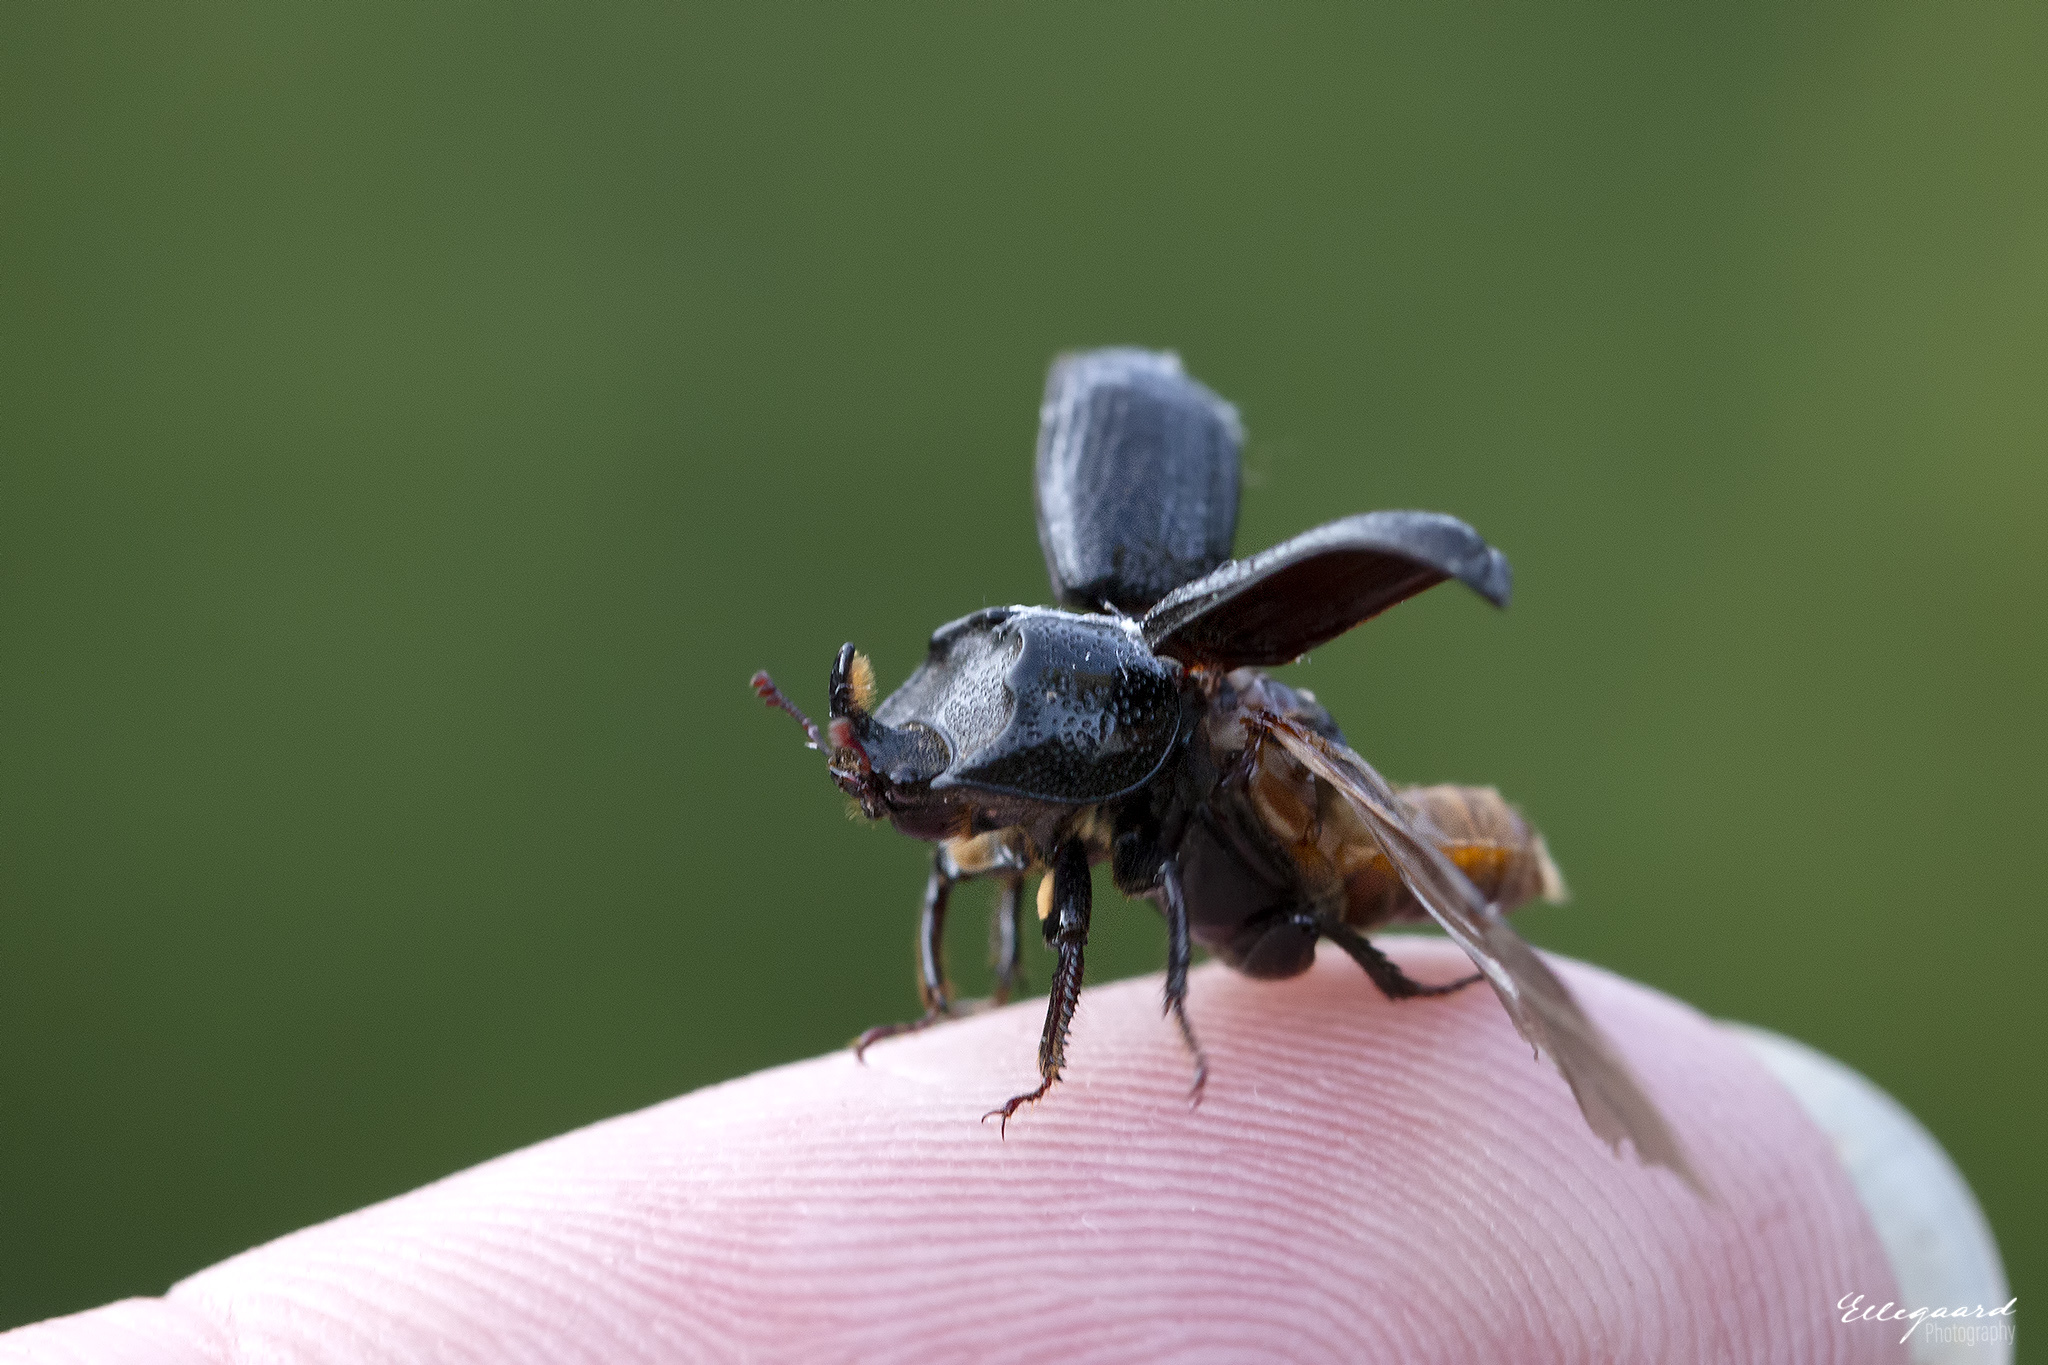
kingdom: Animalia
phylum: Arthropoda
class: Insecta
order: Coleoptera
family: Lucanidae
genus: Sinodendron
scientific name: Sinodendron cylindricum
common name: Rhinoceros beetle
